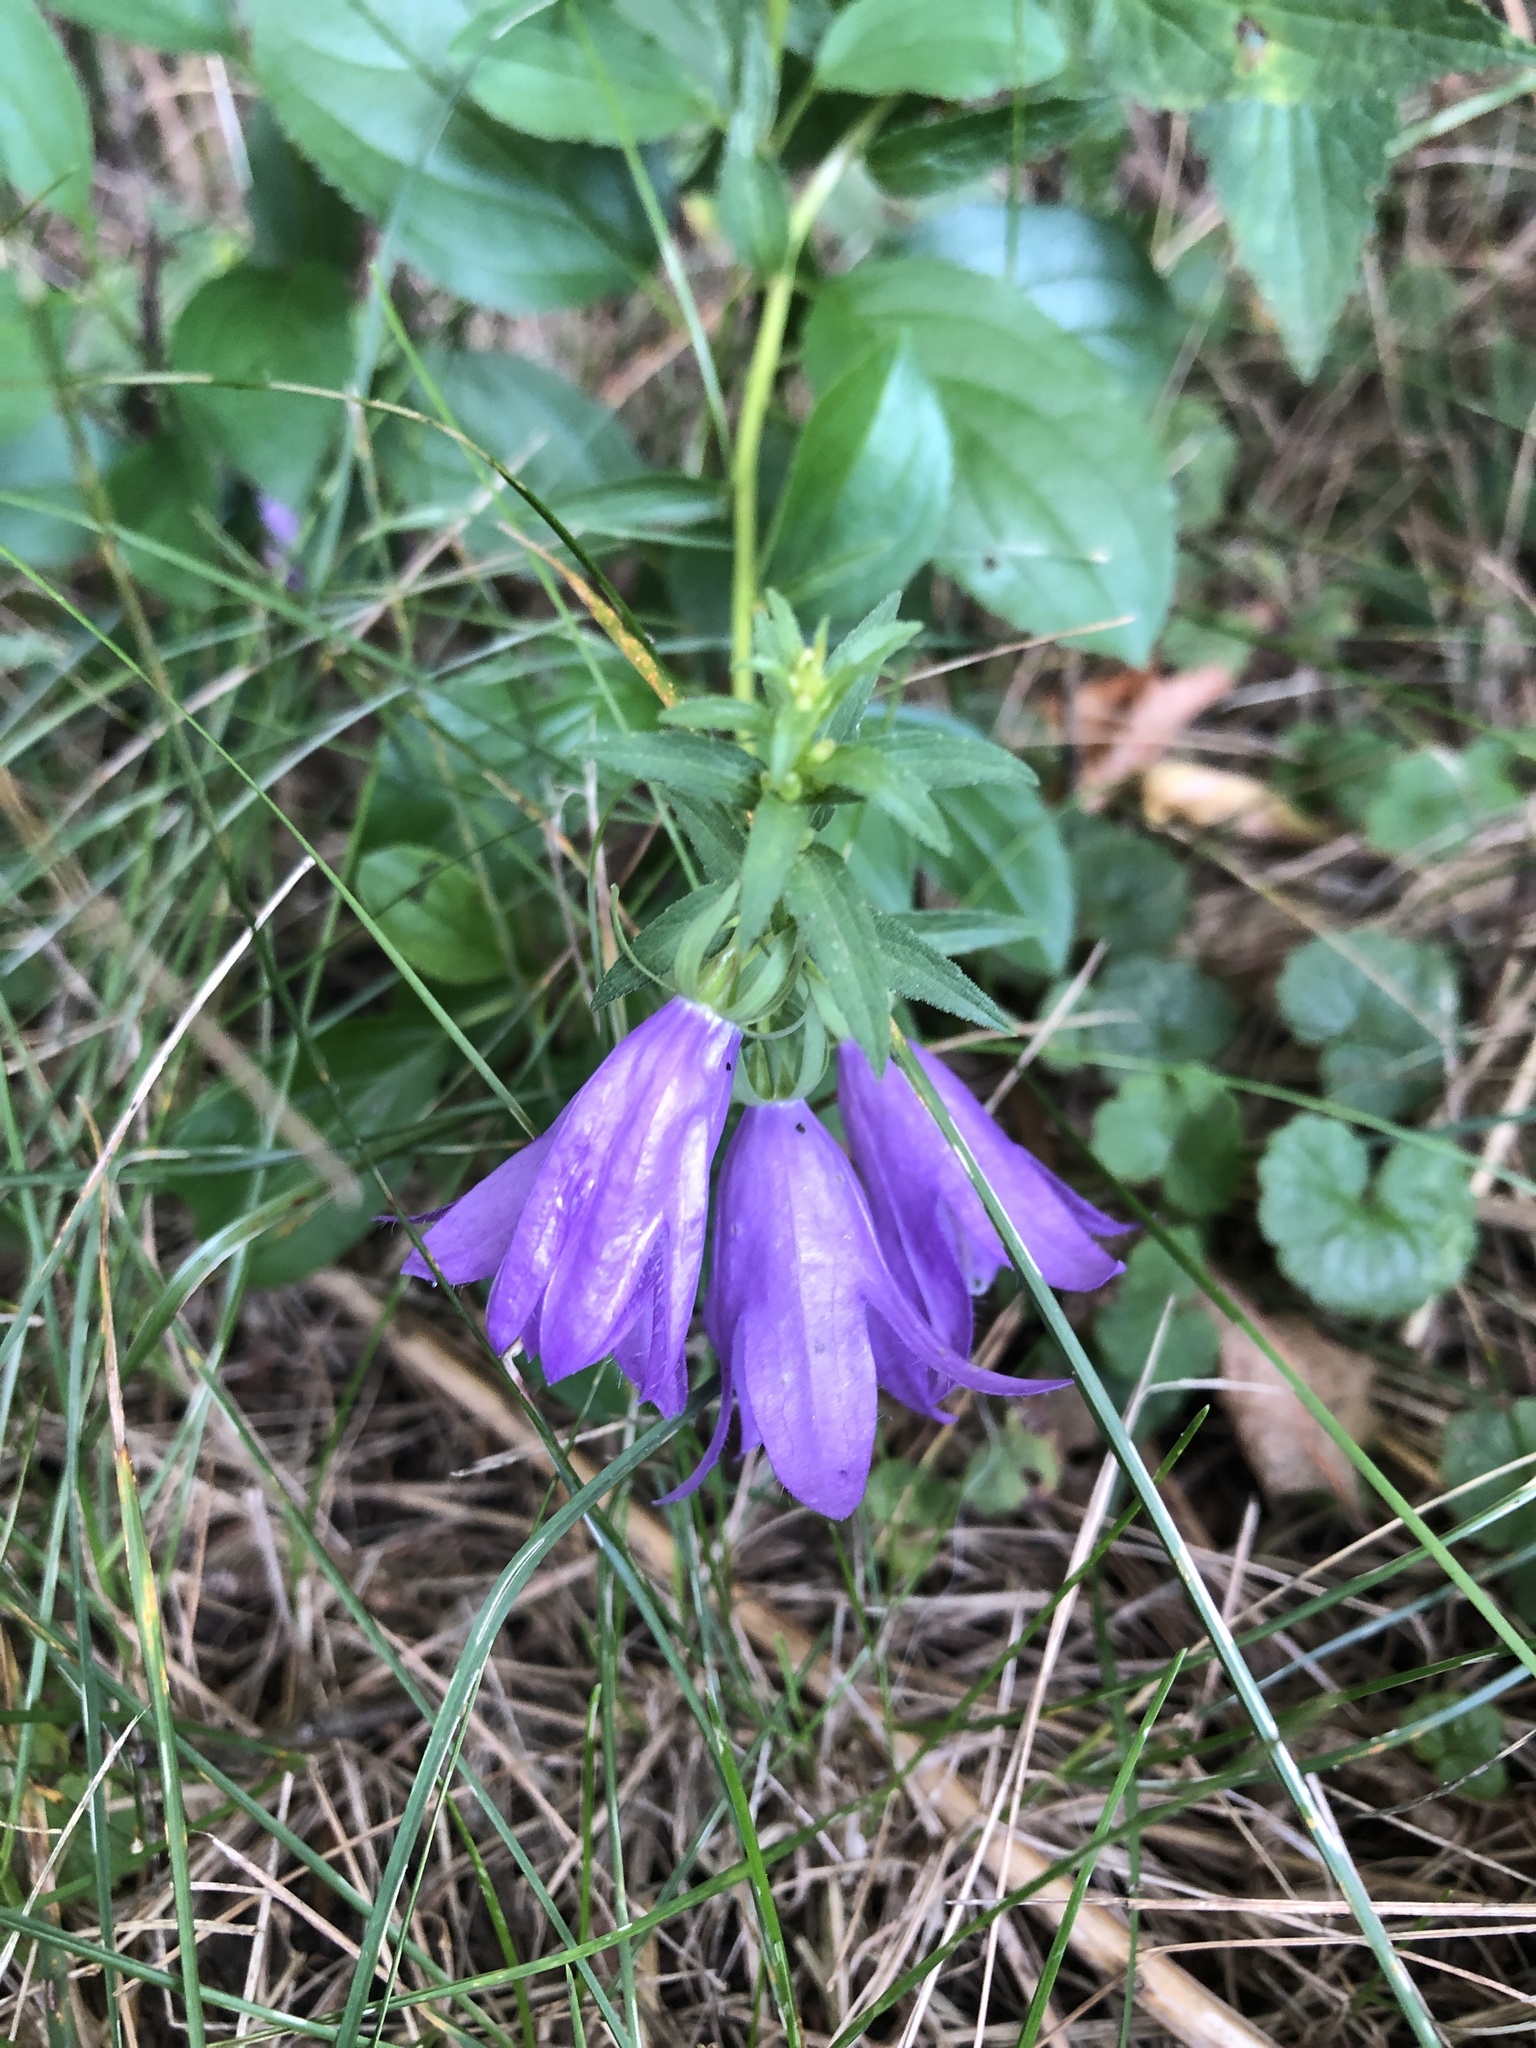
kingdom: Plantae
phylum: Tracheophyta
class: Magnoliopsida
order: Asterales
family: Campanulaceae
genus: Campanula
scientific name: Campanula rapunculoides
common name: Creeping bellflower
